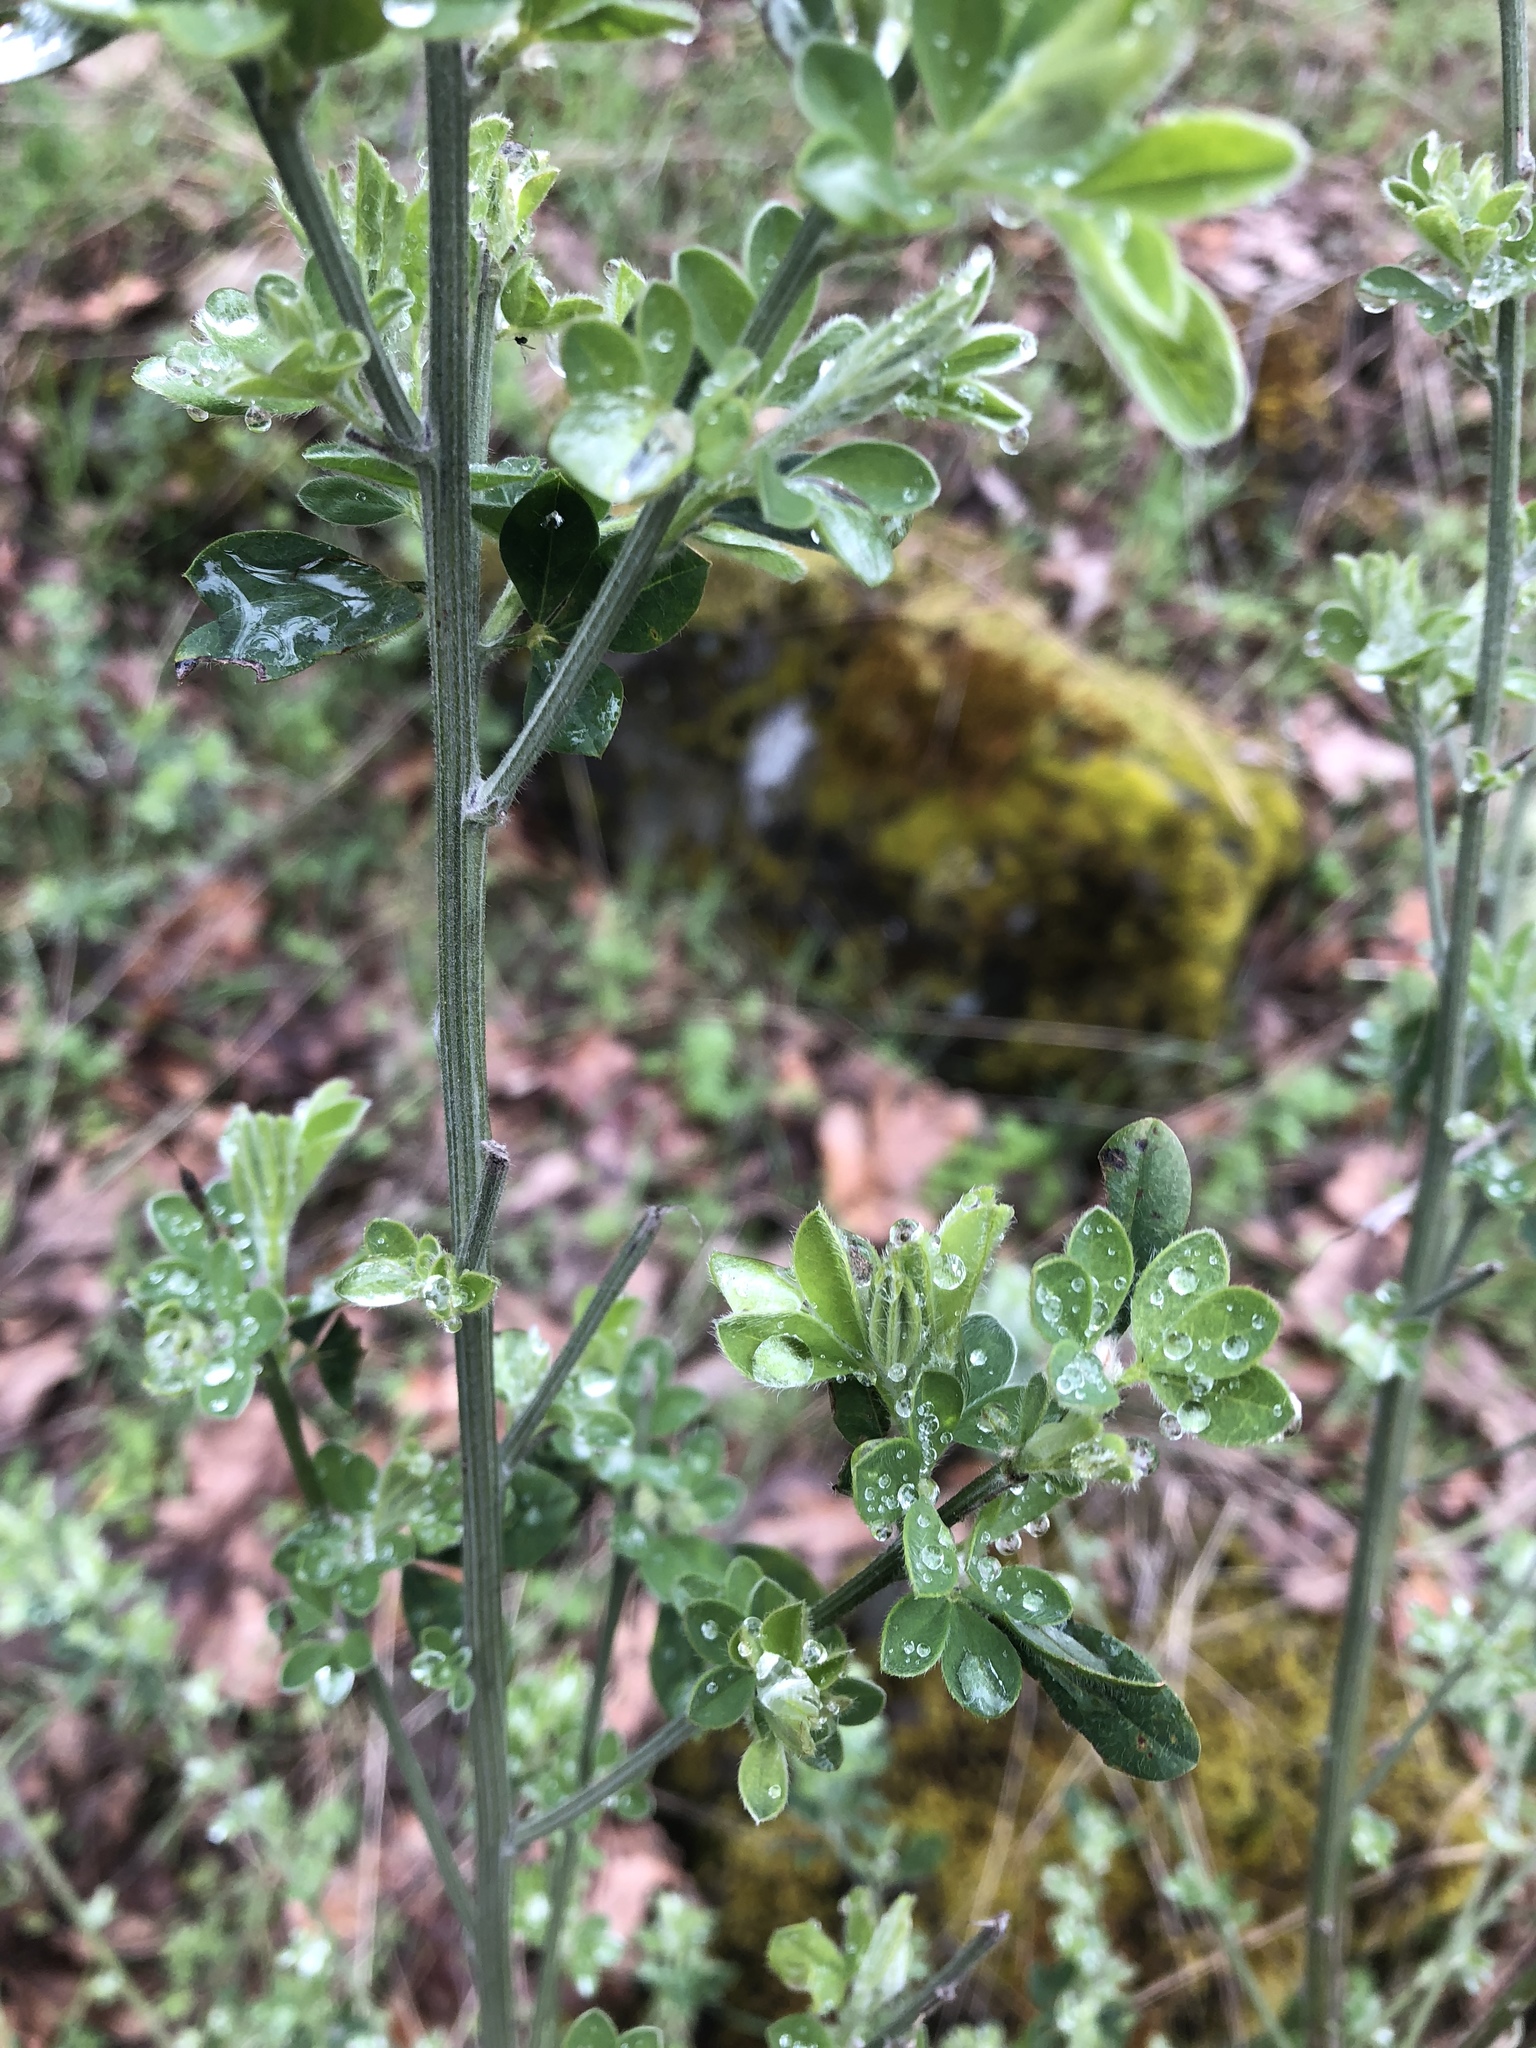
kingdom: Plantae
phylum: Tracheophyta
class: Magnoliopsida
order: Fabales
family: Fabaceae
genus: Genista
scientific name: Genista monspessulana
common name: Montpellier broom
